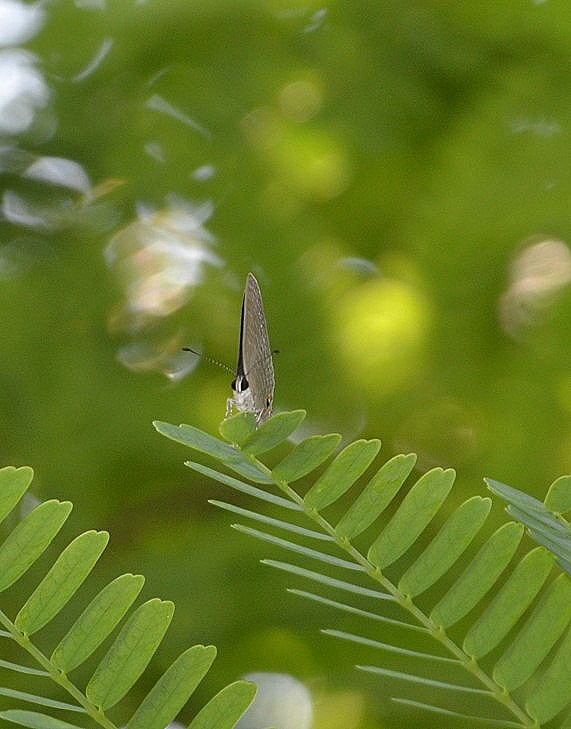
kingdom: Animalia
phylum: Arthropoda
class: Insecta
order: Lepidoptera
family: Lycaenidae
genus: Jamides
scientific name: Jamides bochus
